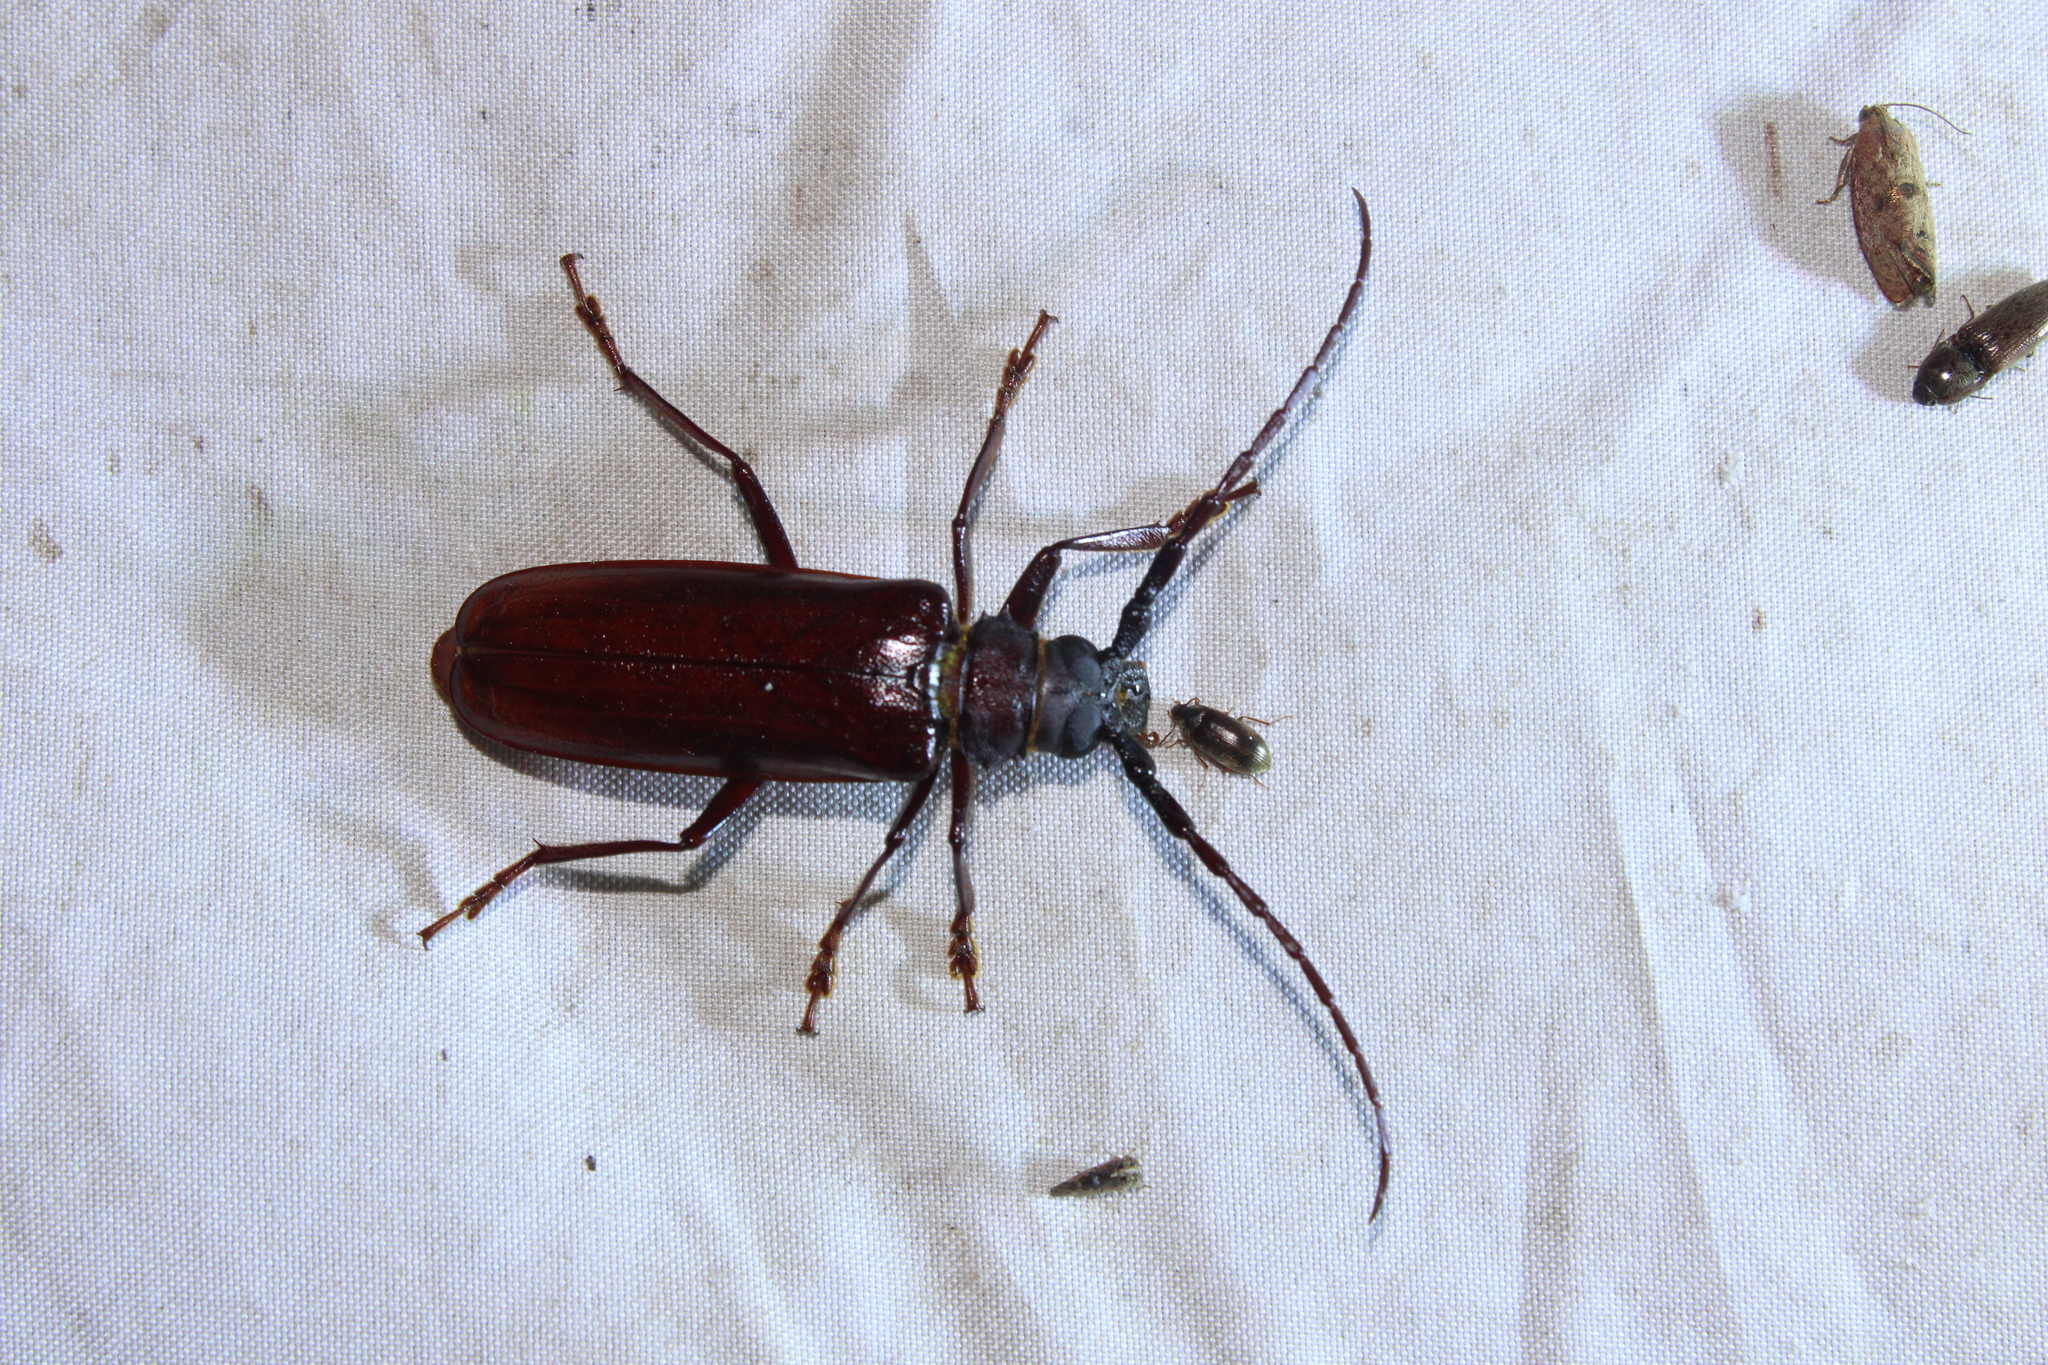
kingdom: Animalia
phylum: Arthropoda
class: Insecta
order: Coleoptera
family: Cerambycidae
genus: Orthosoma
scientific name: Orthosoma brunneum
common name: Brown prionid beetle
